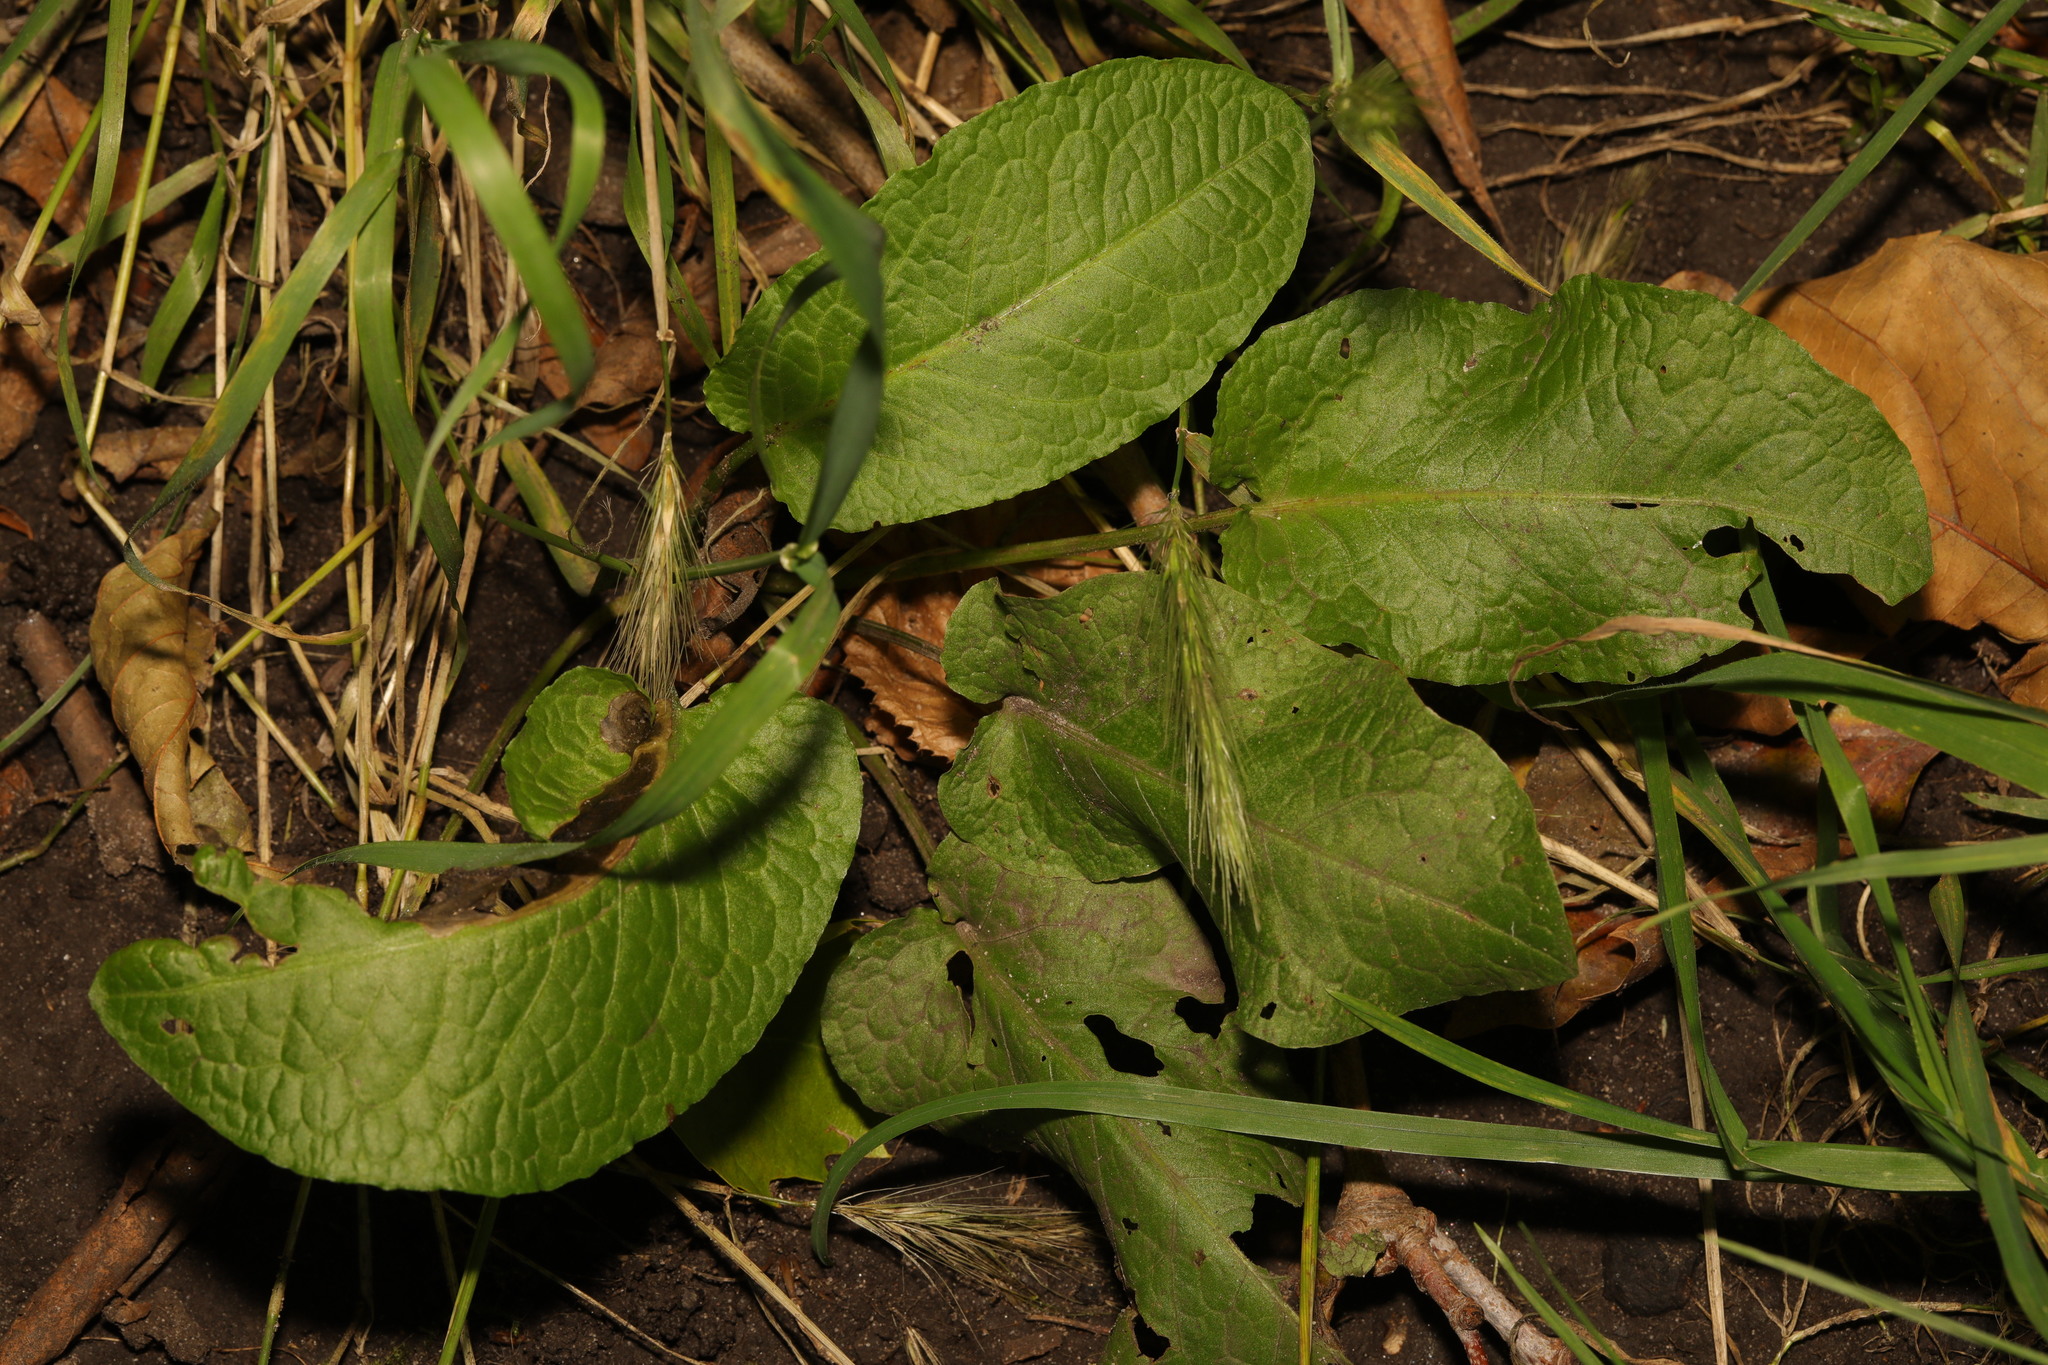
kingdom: Plantae
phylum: Tracheophyta
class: Magnoliopsida
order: Caryophyllales
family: Polygonaceae
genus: Rumex
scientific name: Rumex obtusifolius
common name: Bitter dock
